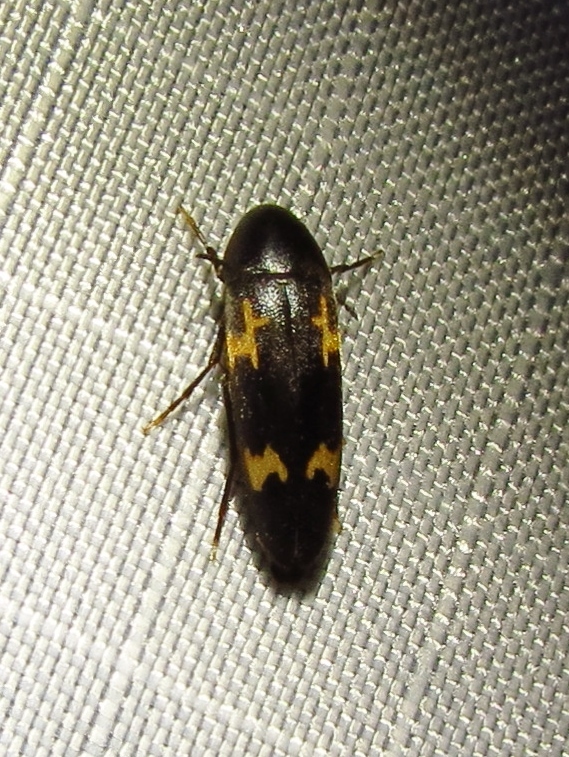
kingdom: Animalia
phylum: Arthropoda
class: Insecta
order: Coleoptera
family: Melandryidae
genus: Dircaea
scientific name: Dircaea liturata
